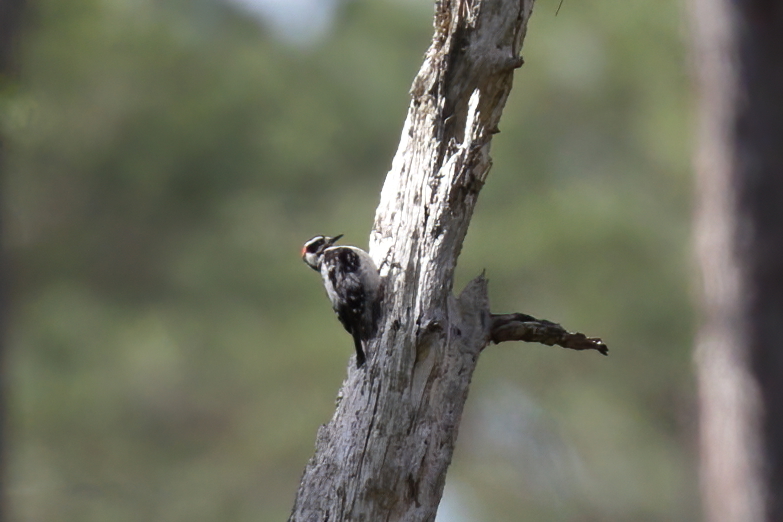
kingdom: Animalia
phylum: Chordata
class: Aves
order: Piciformes
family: Picidae
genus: Dryobates
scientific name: Dryobates pubescens
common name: Downy woodpecker
